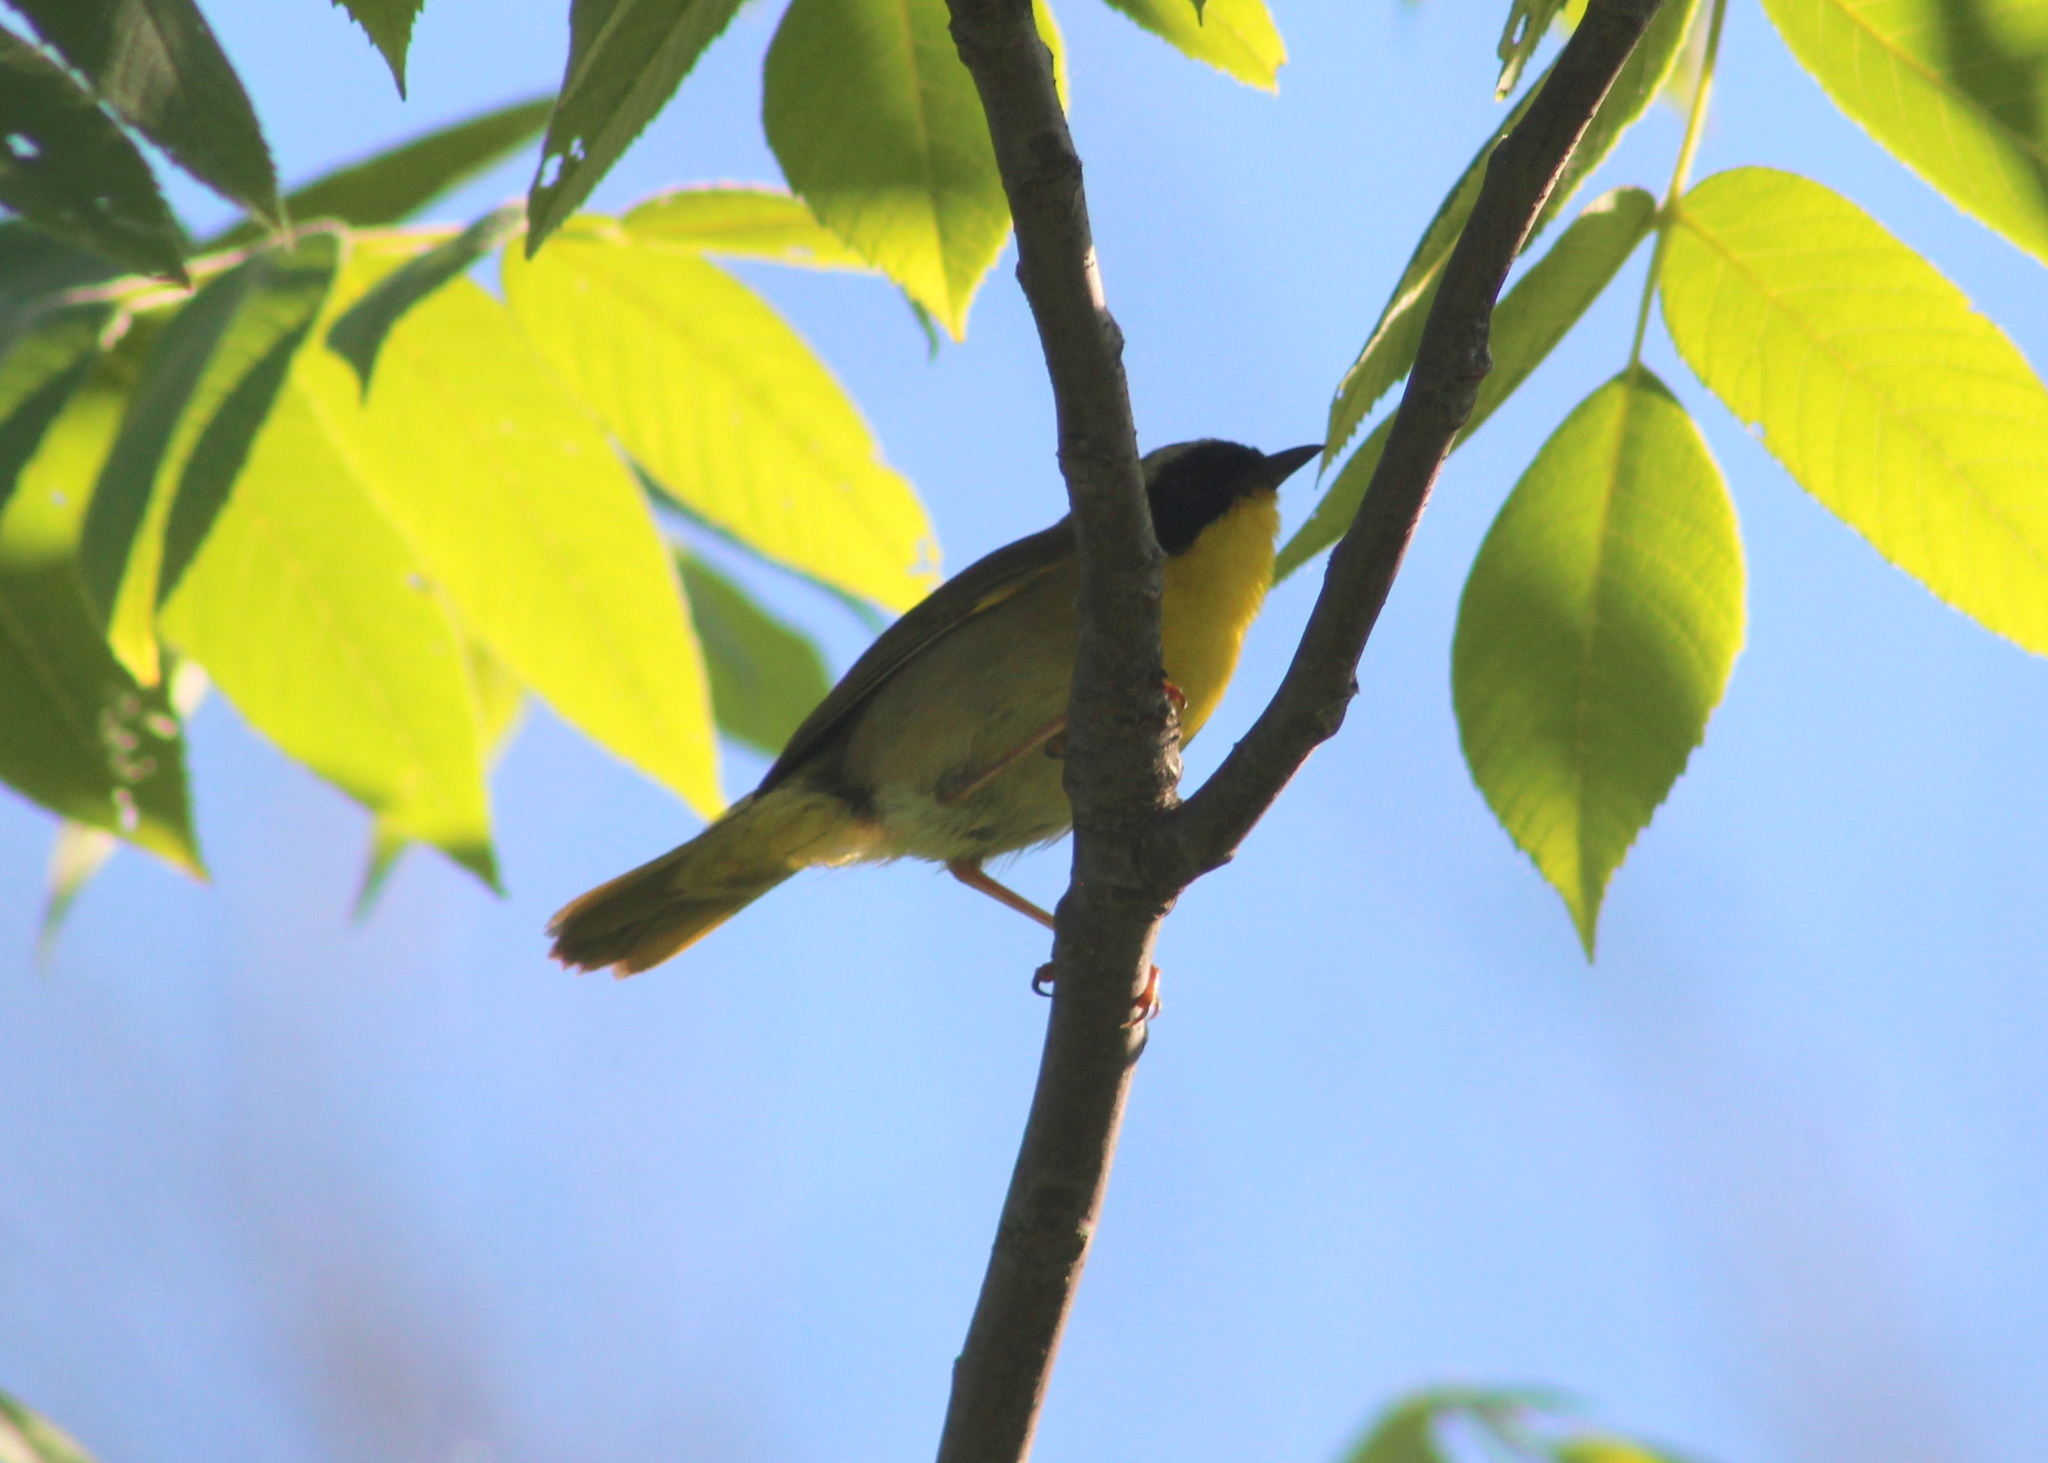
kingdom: Animalia
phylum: Chordata
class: Aves
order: Passeriformes
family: Parulidae
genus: Geothlypis
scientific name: Geothlypis trichas
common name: Common yellowthroat
